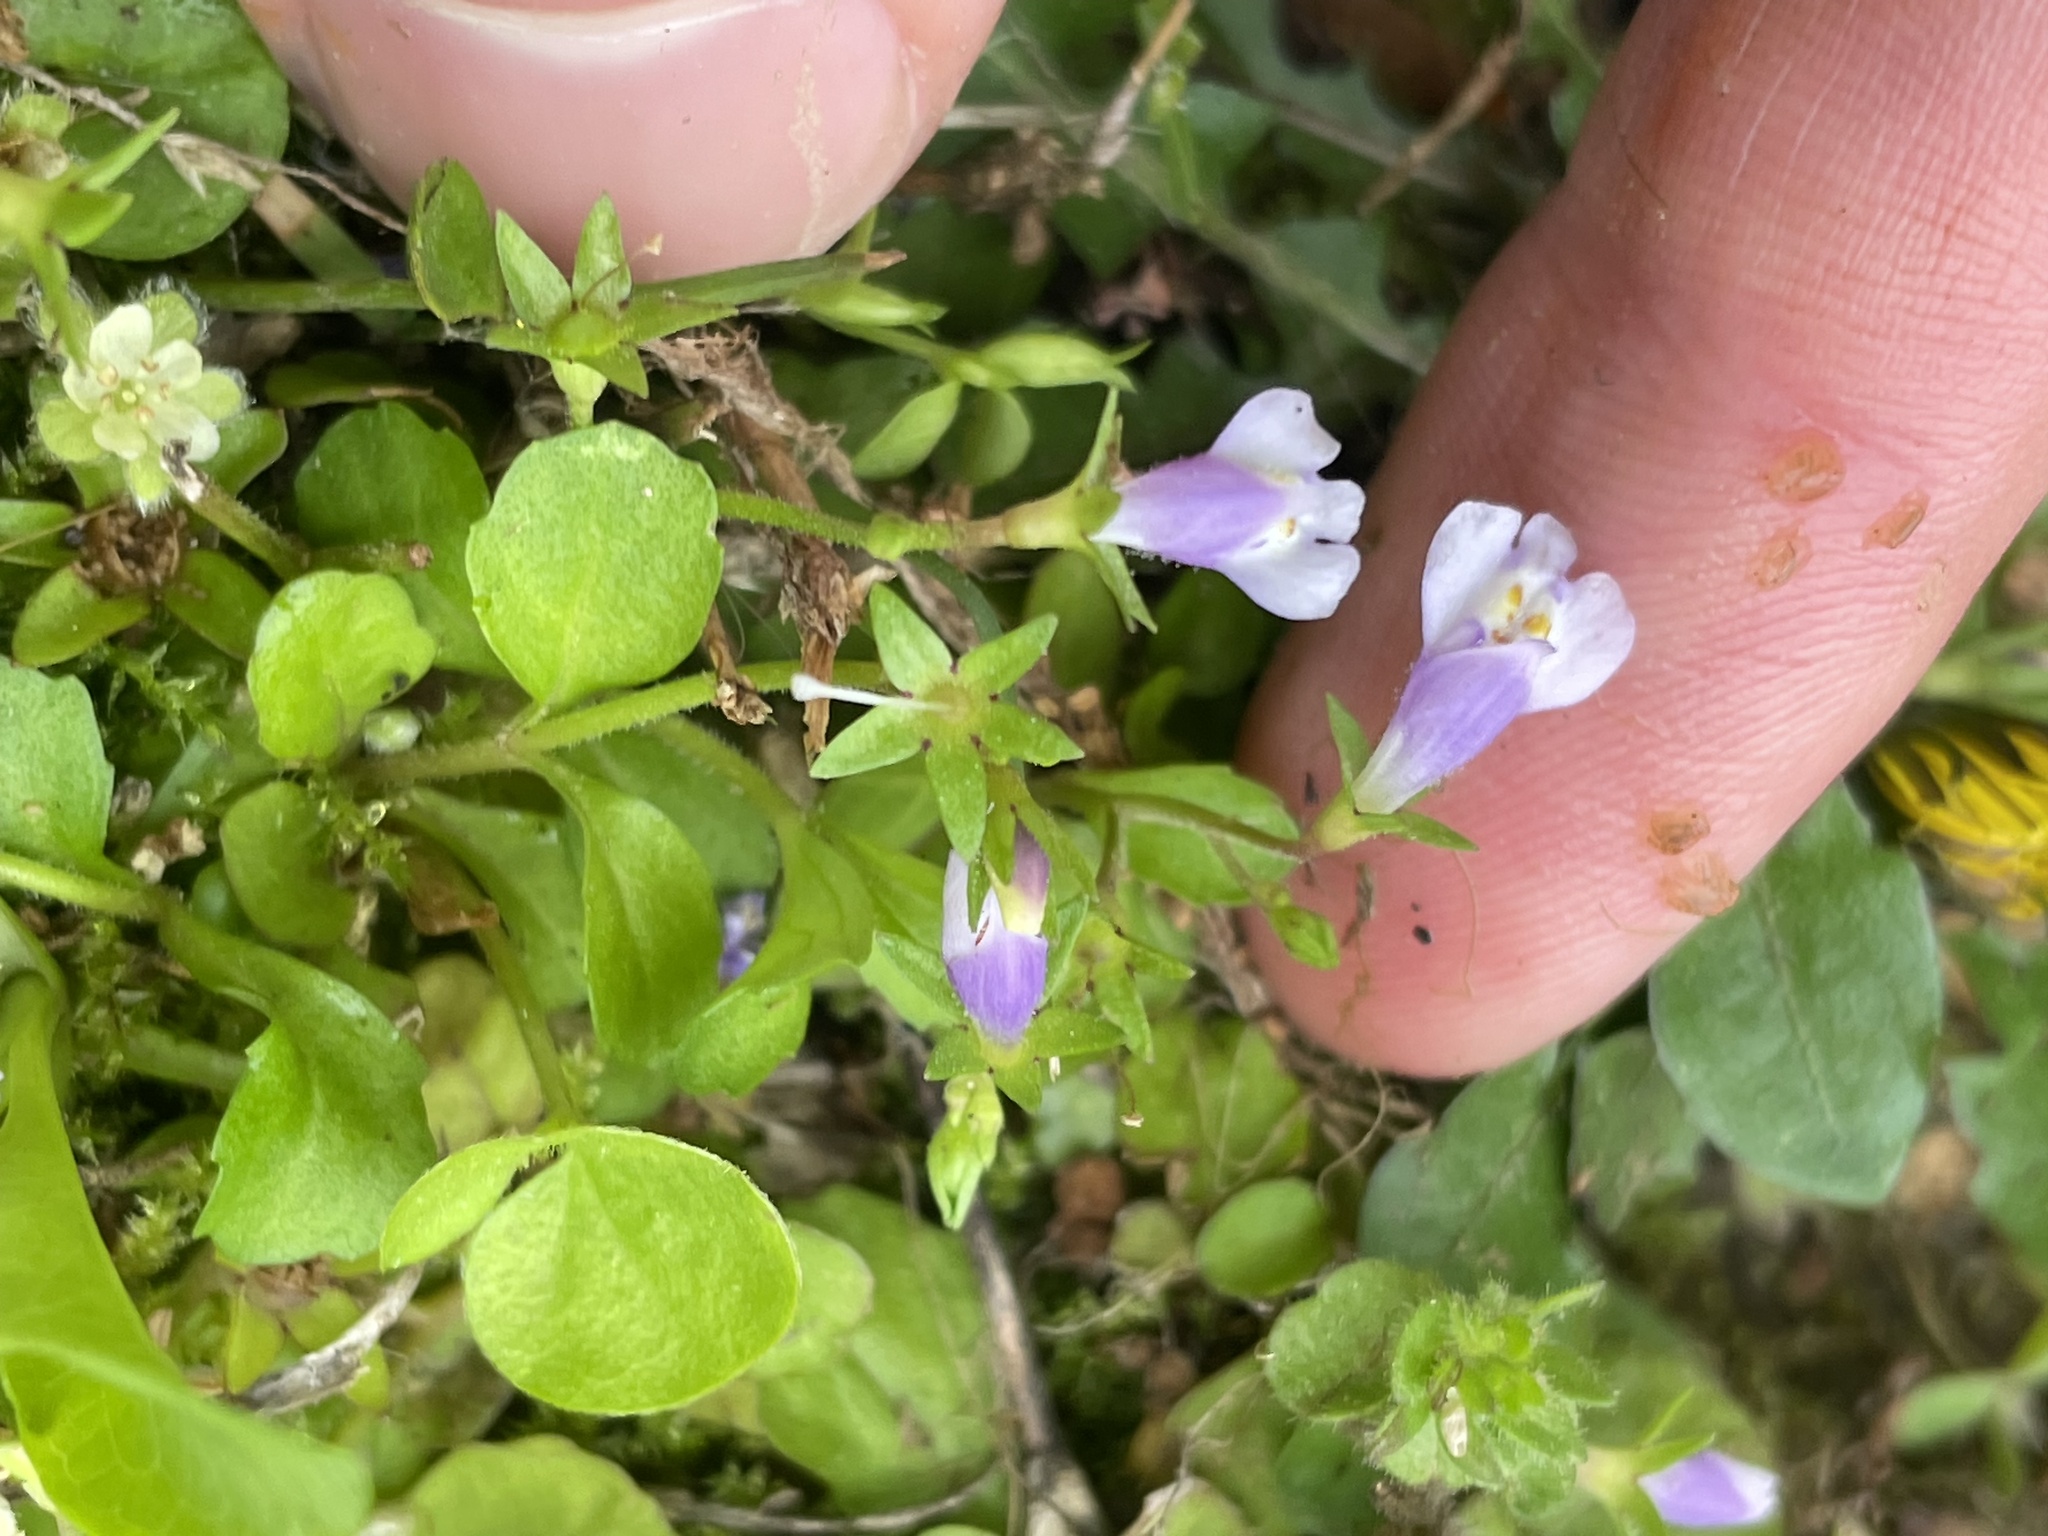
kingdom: Plantae
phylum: Tracheophyta
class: Magnoliopsida
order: Lamiales
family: Mazaceae
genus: Mazus
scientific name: Mazus pumilus
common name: Japanese mazus
